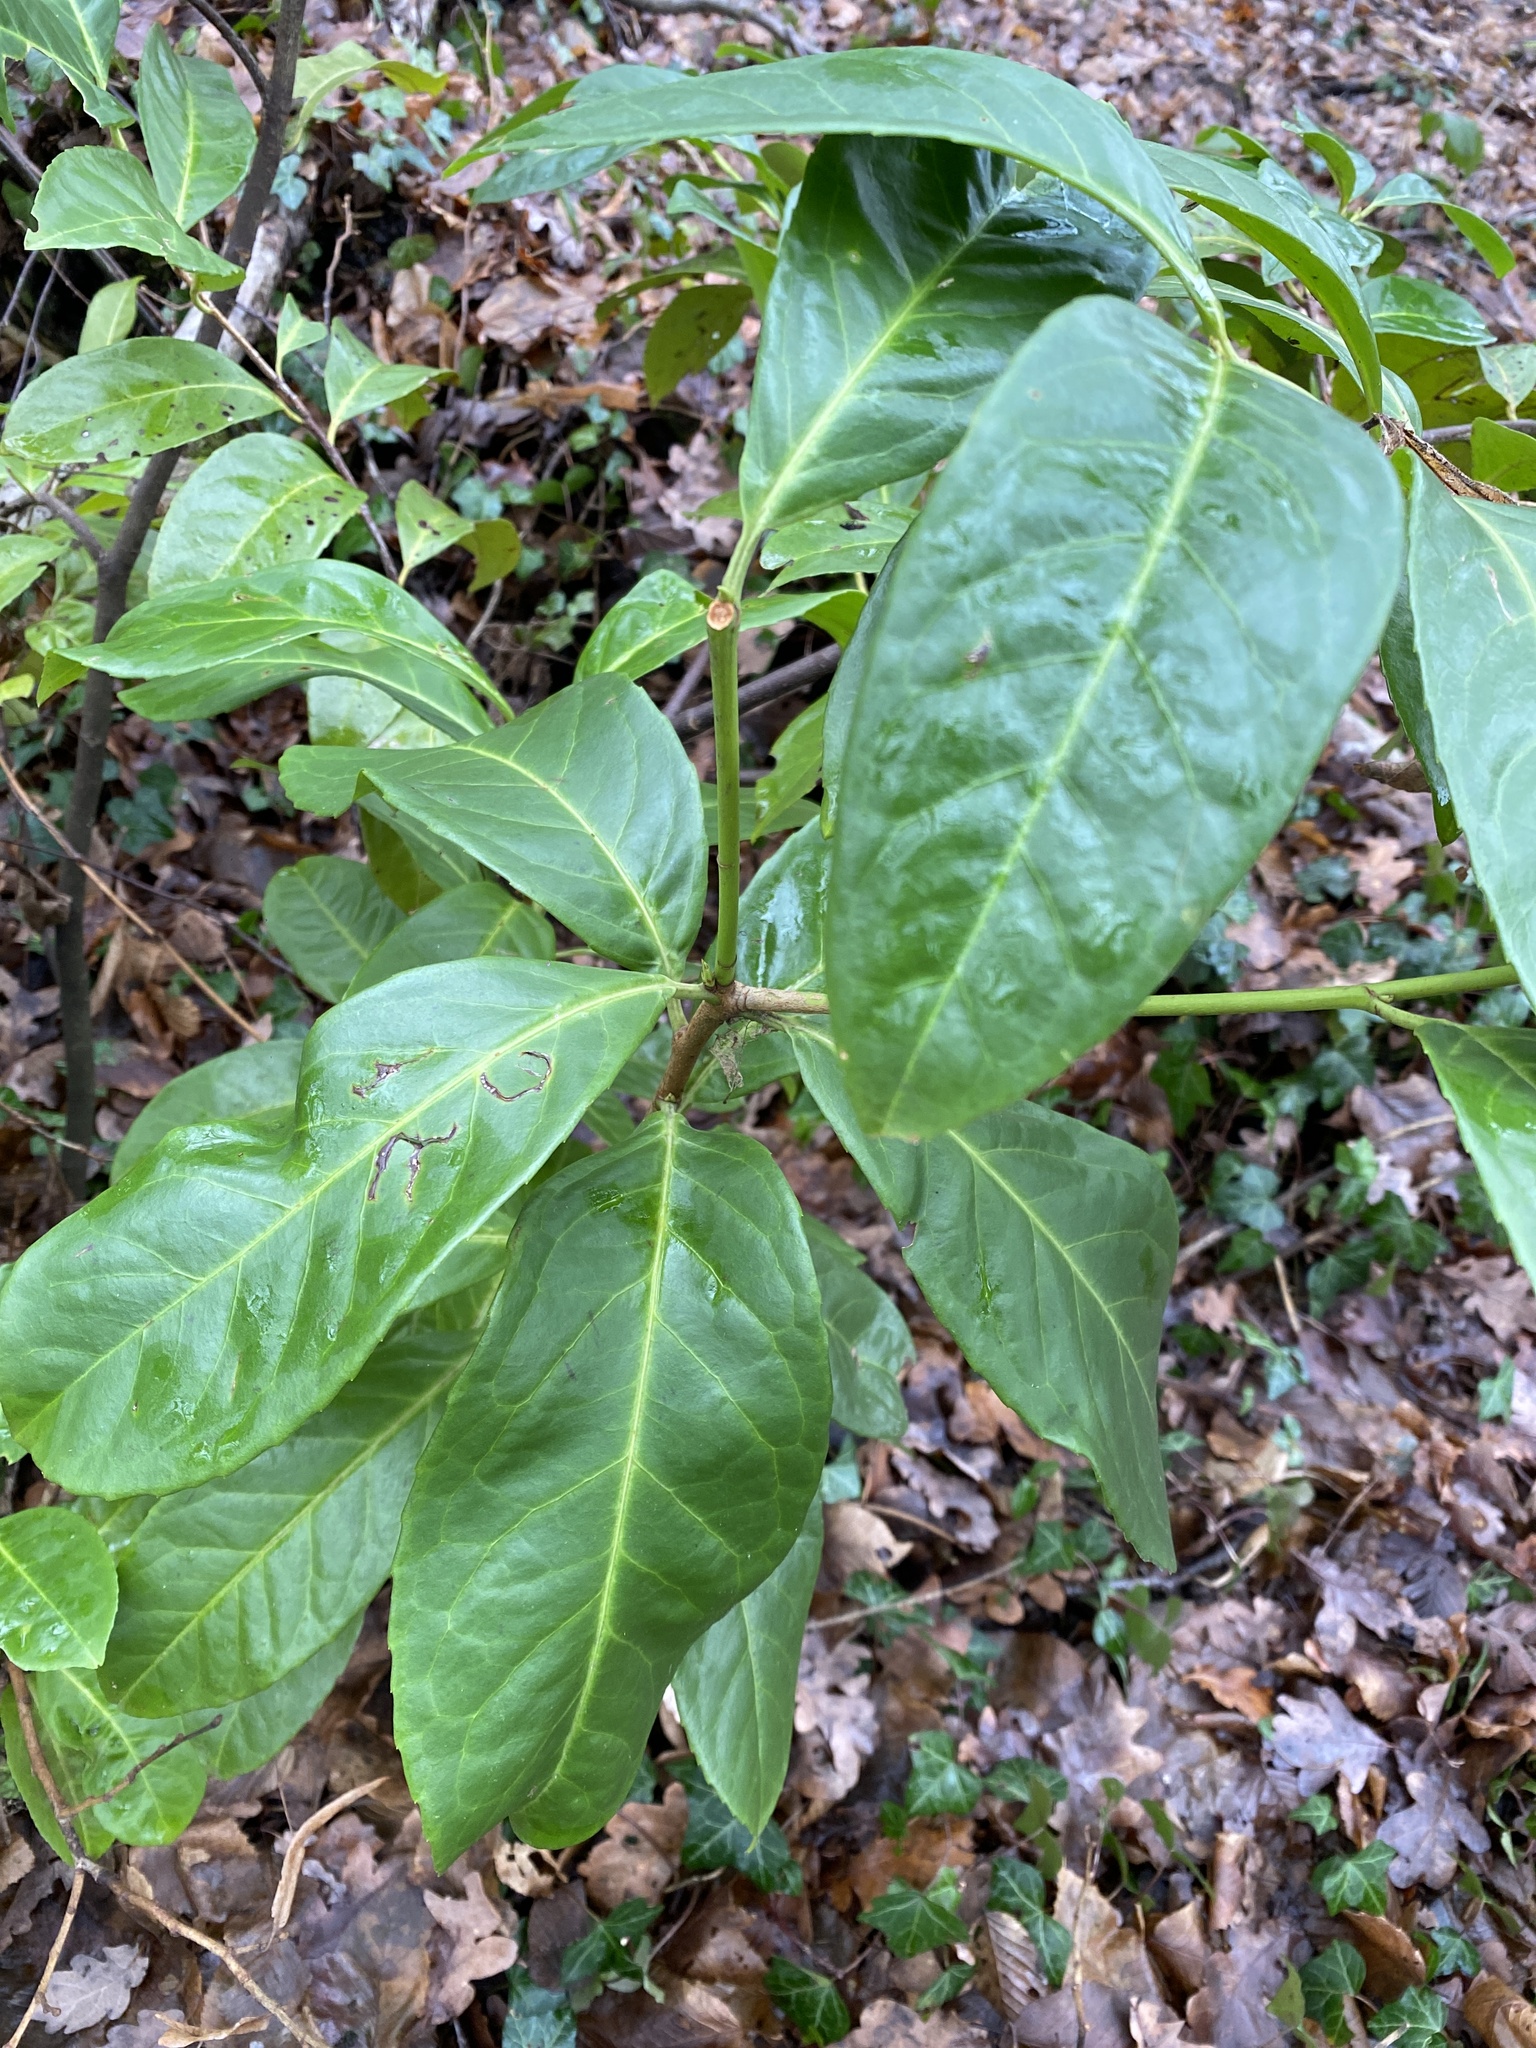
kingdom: Plantae
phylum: Tracheophyta
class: Magnoliopsida
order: Rosales
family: Rosaceae
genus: Prunus
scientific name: Prunus laurocerasus
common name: Cherry laurel
